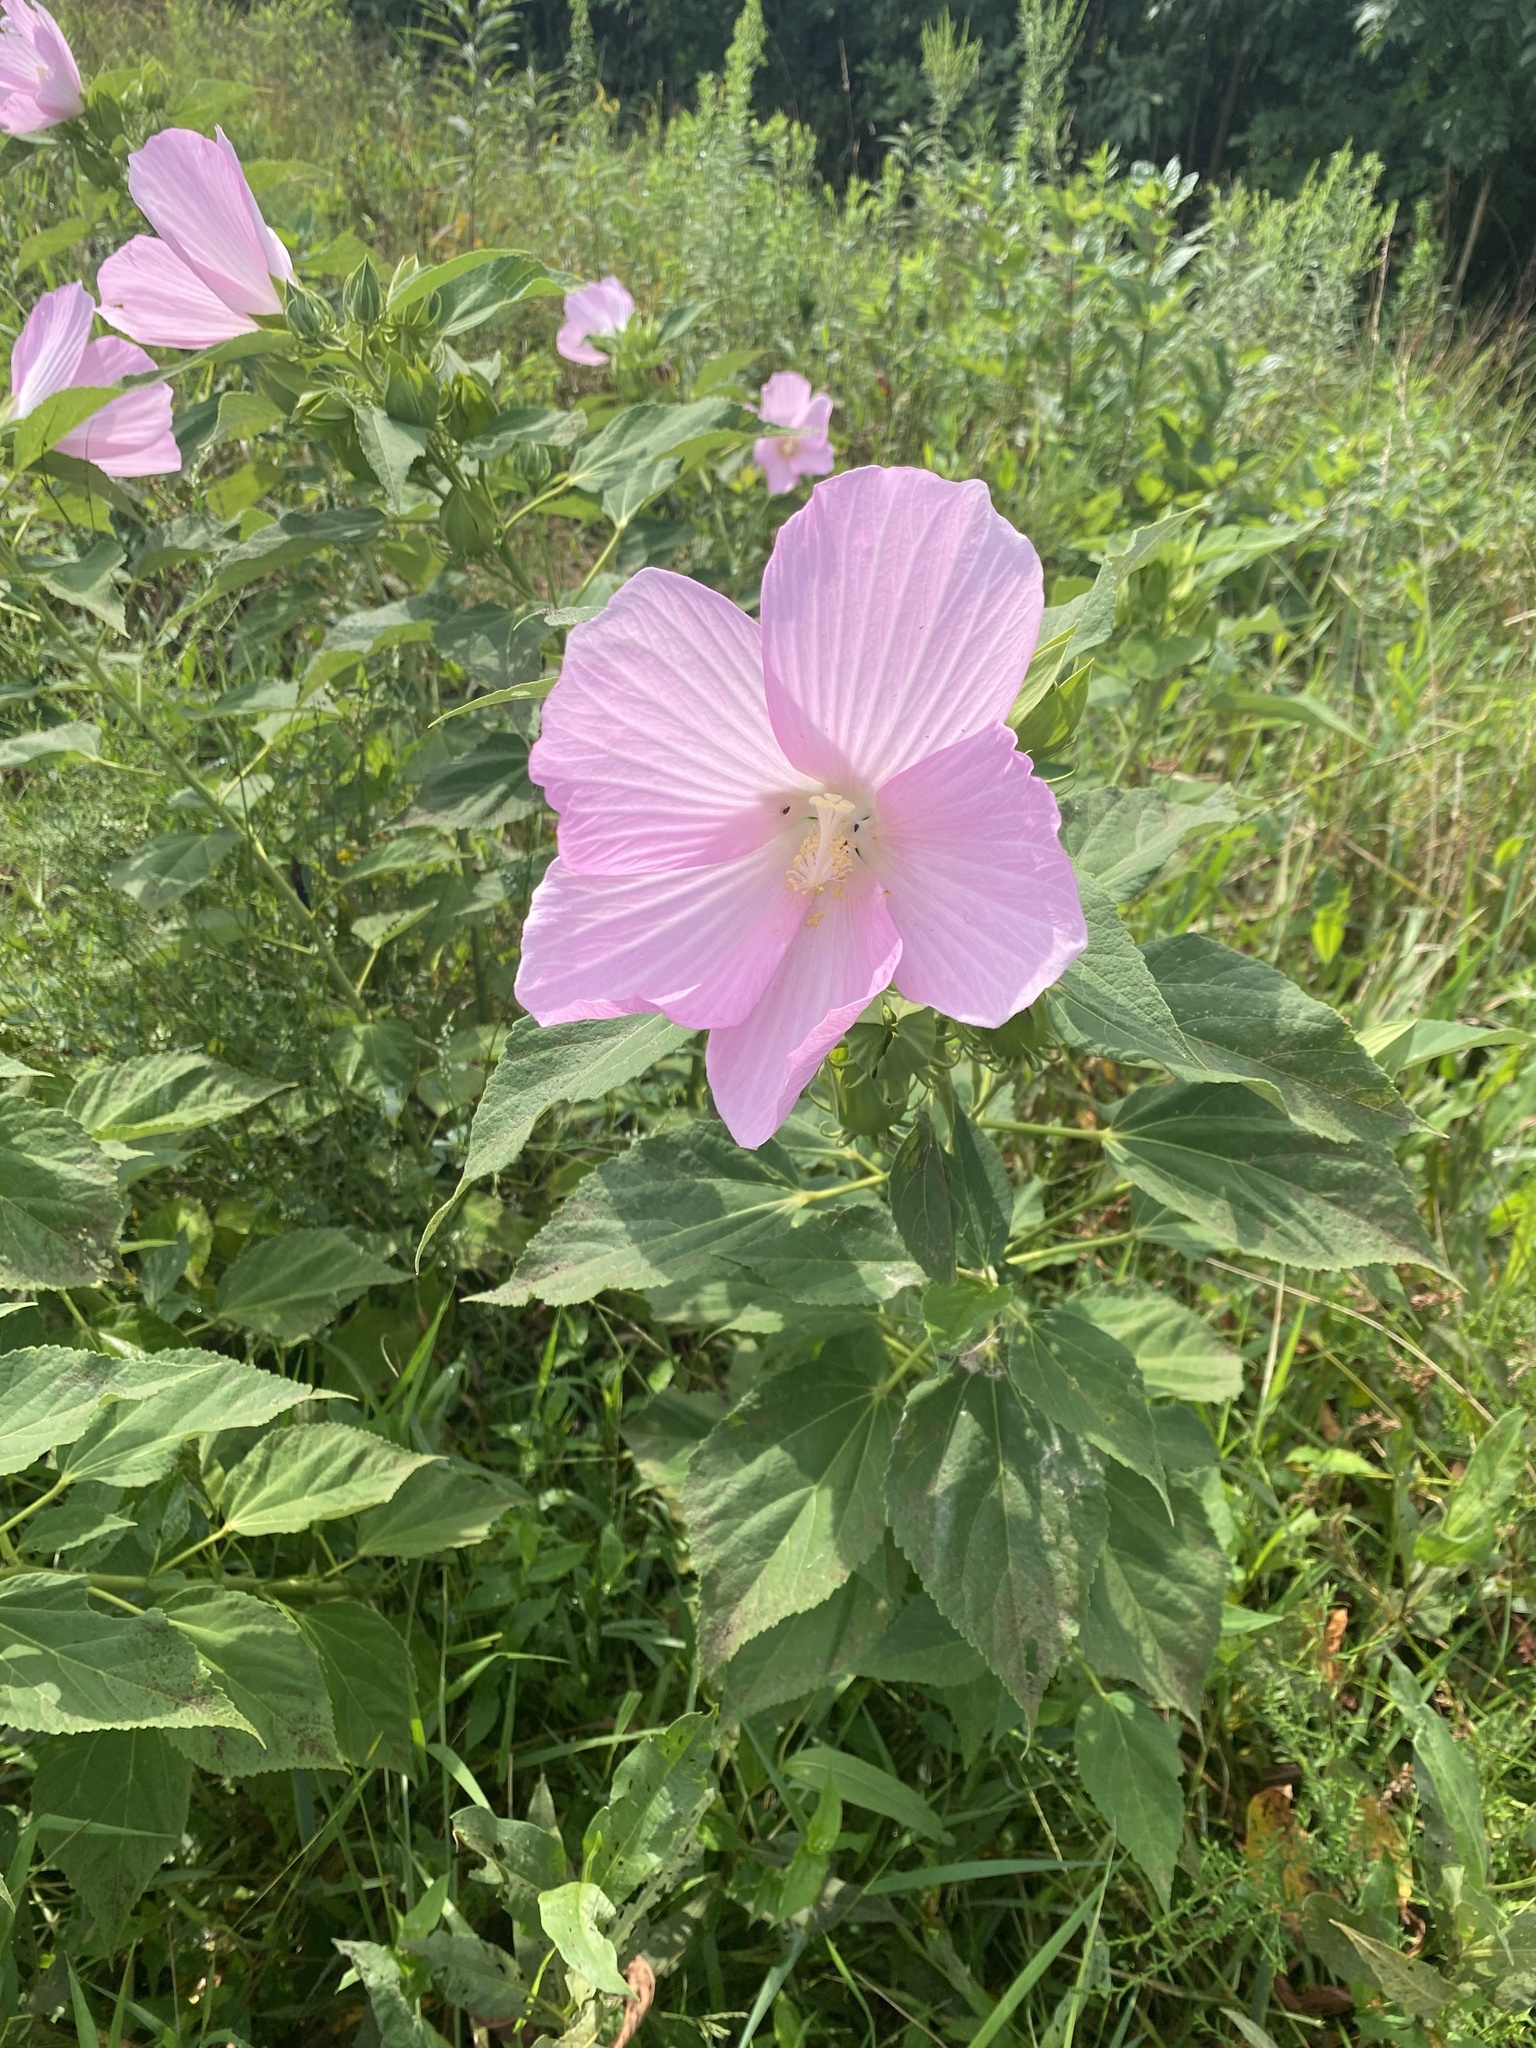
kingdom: Plantae
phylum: Tracheophyta
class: Magnoliopsida
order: Malvales
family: Malvaceae
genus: Hibiscus
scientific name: Hibiscus moscheutos
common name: Common rose-mallow
